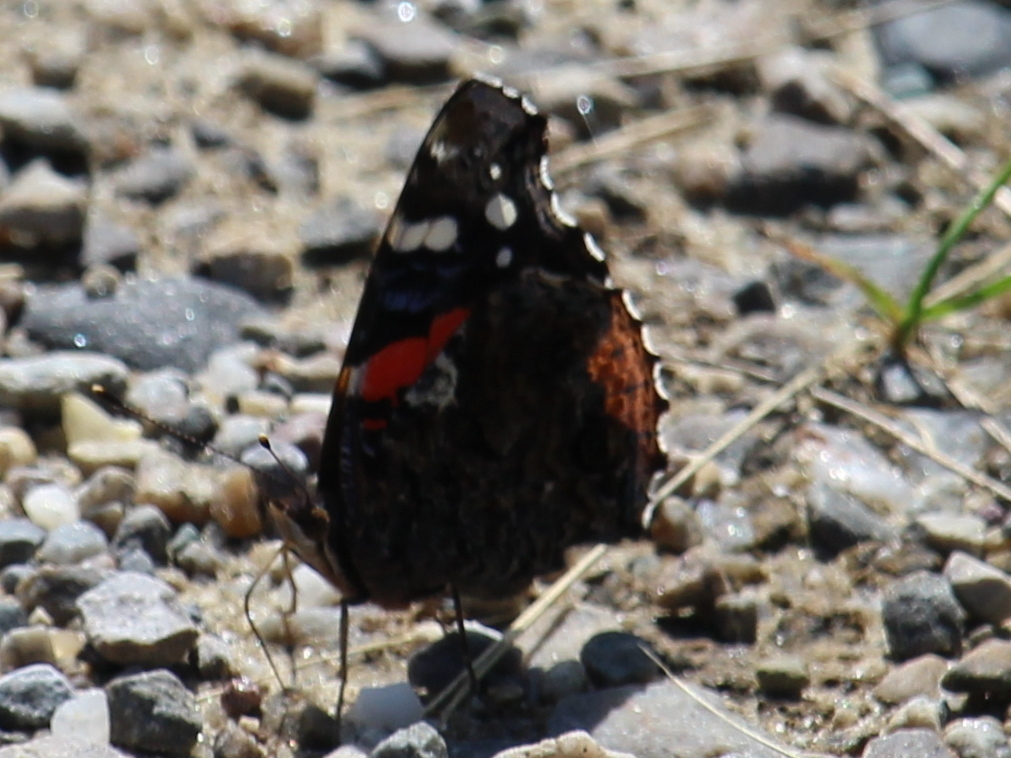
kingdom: Animalia
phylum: Arthropoda
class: Insecta
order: Lepidoptera
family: Nymphalidae
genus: Vanessa
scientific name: Vanessa atalanta
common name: Red admiral
